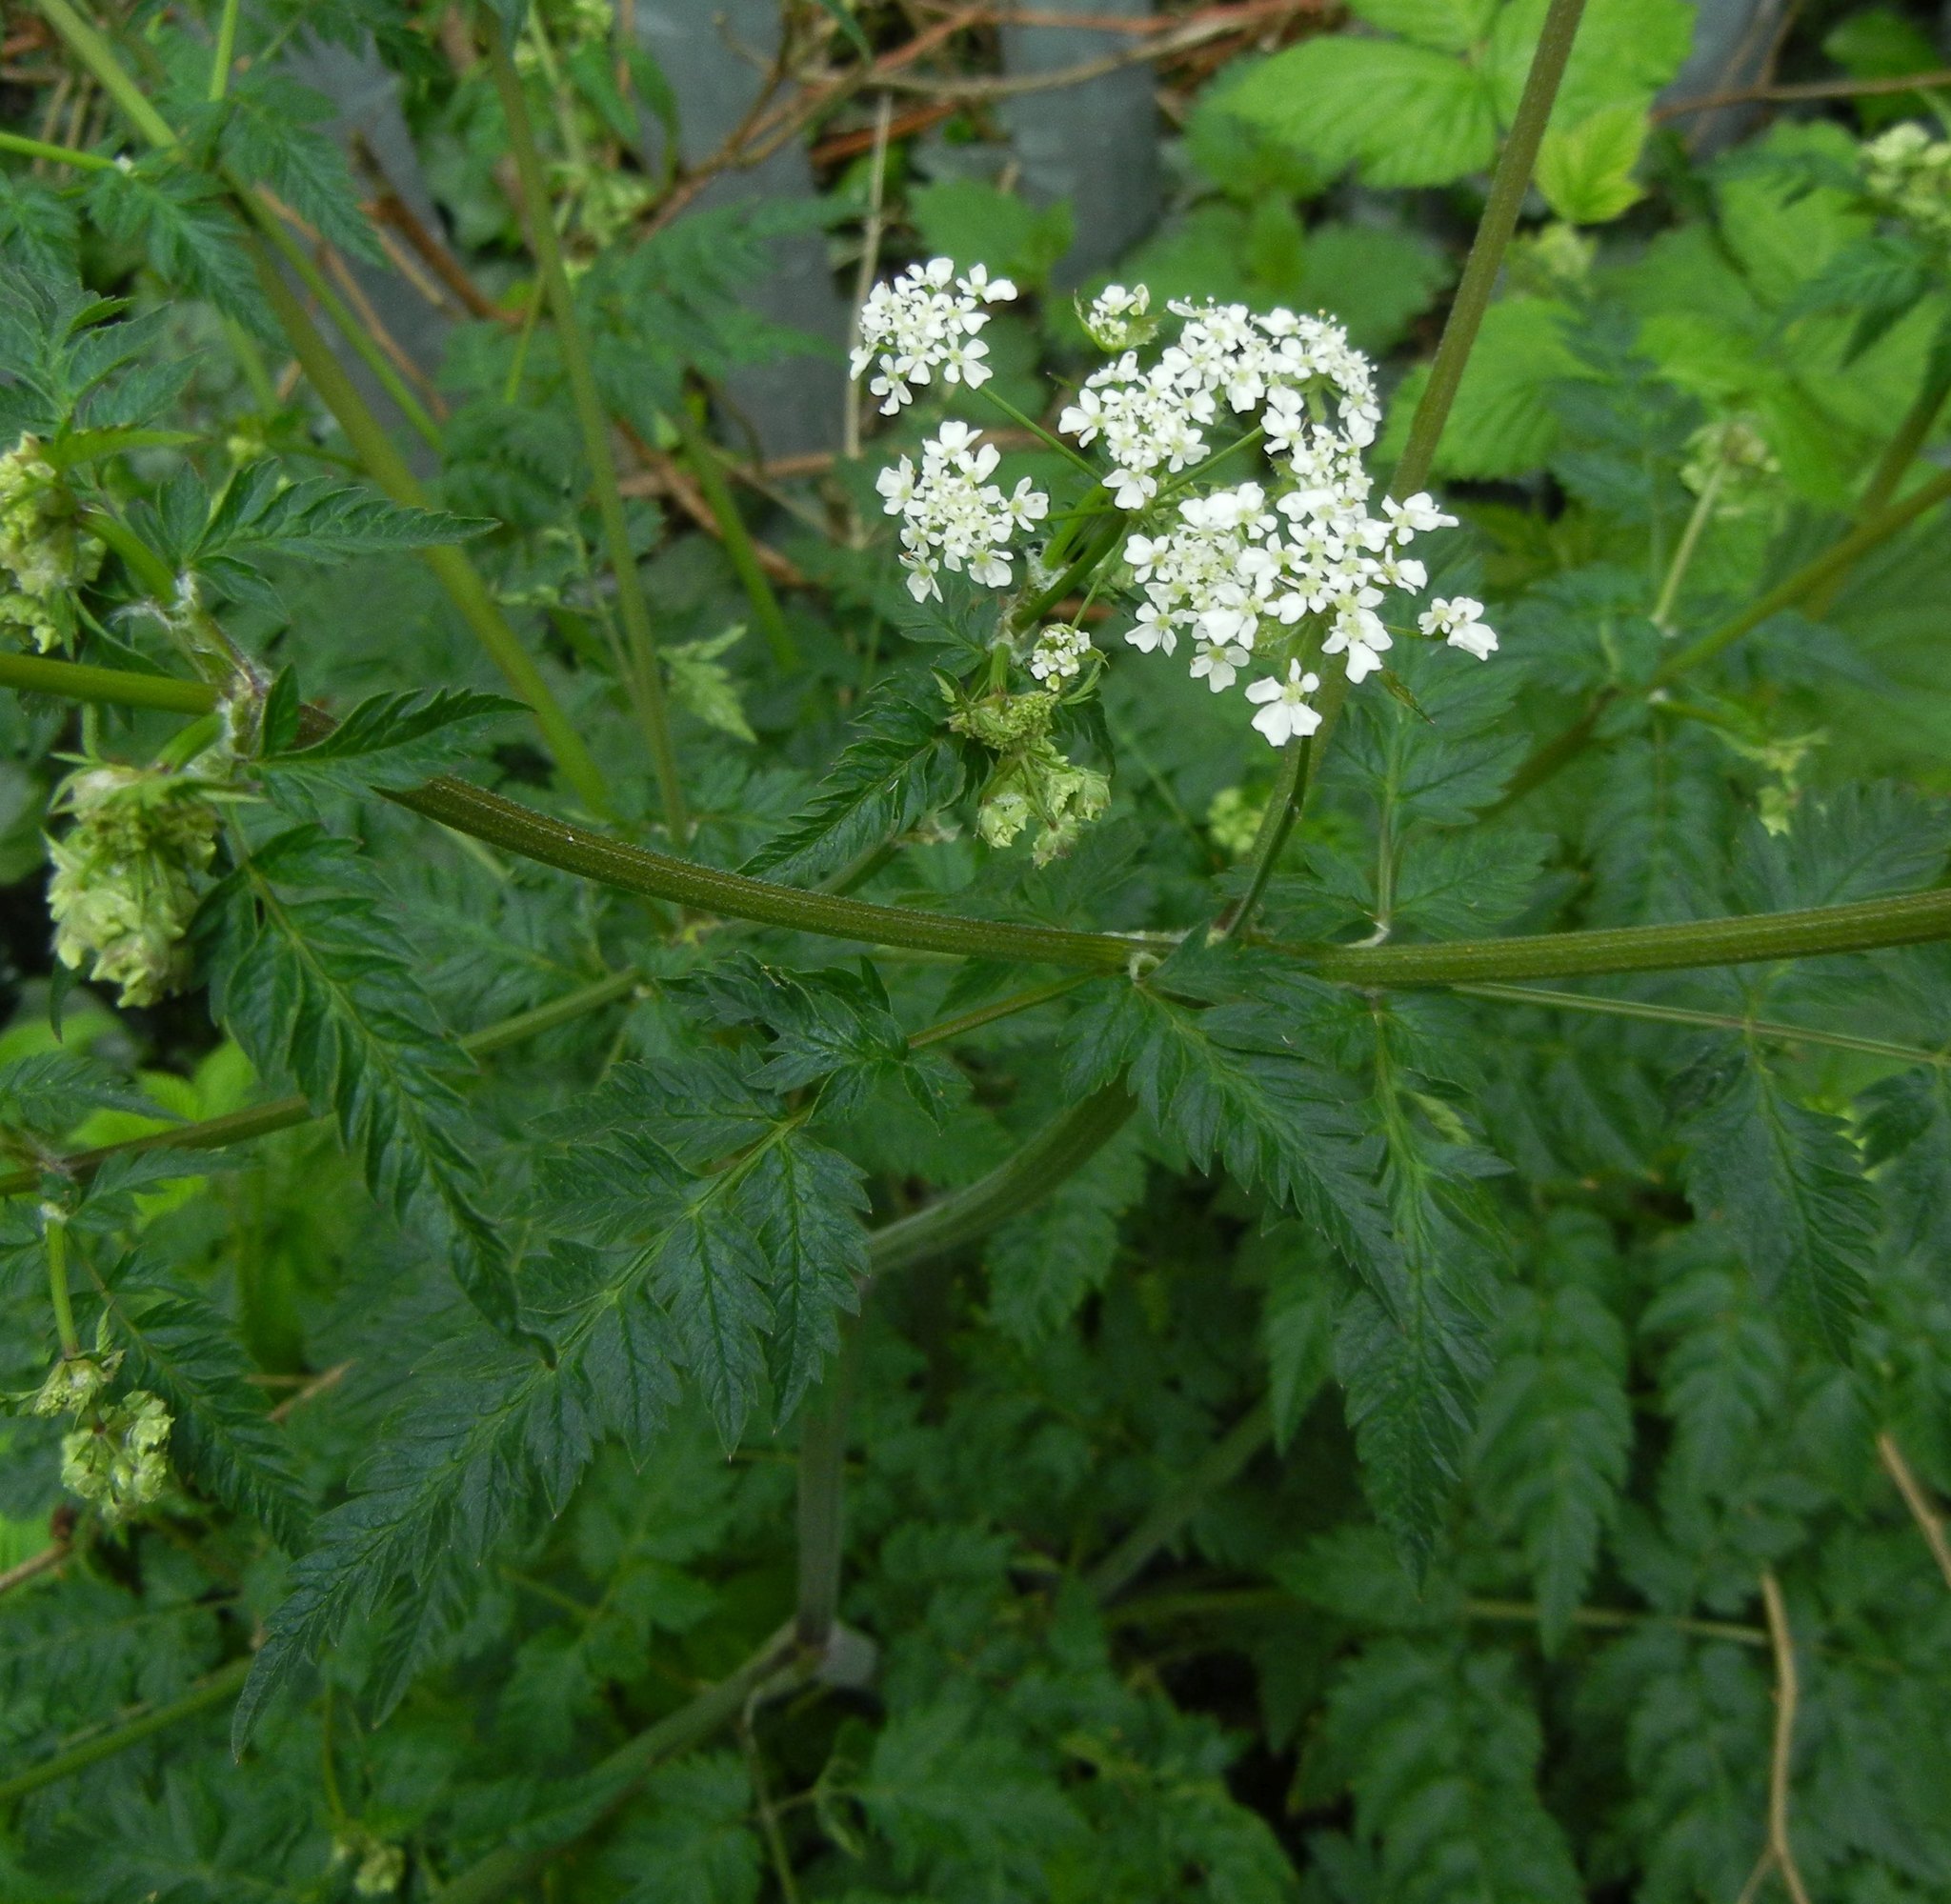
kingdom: Plantae
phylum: Tracheophyta
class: Magnoliopsida
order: Apiales
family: Apiaceae
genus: Anthriscus
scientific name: Anthriscus sylvestris
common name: Cow parsley
